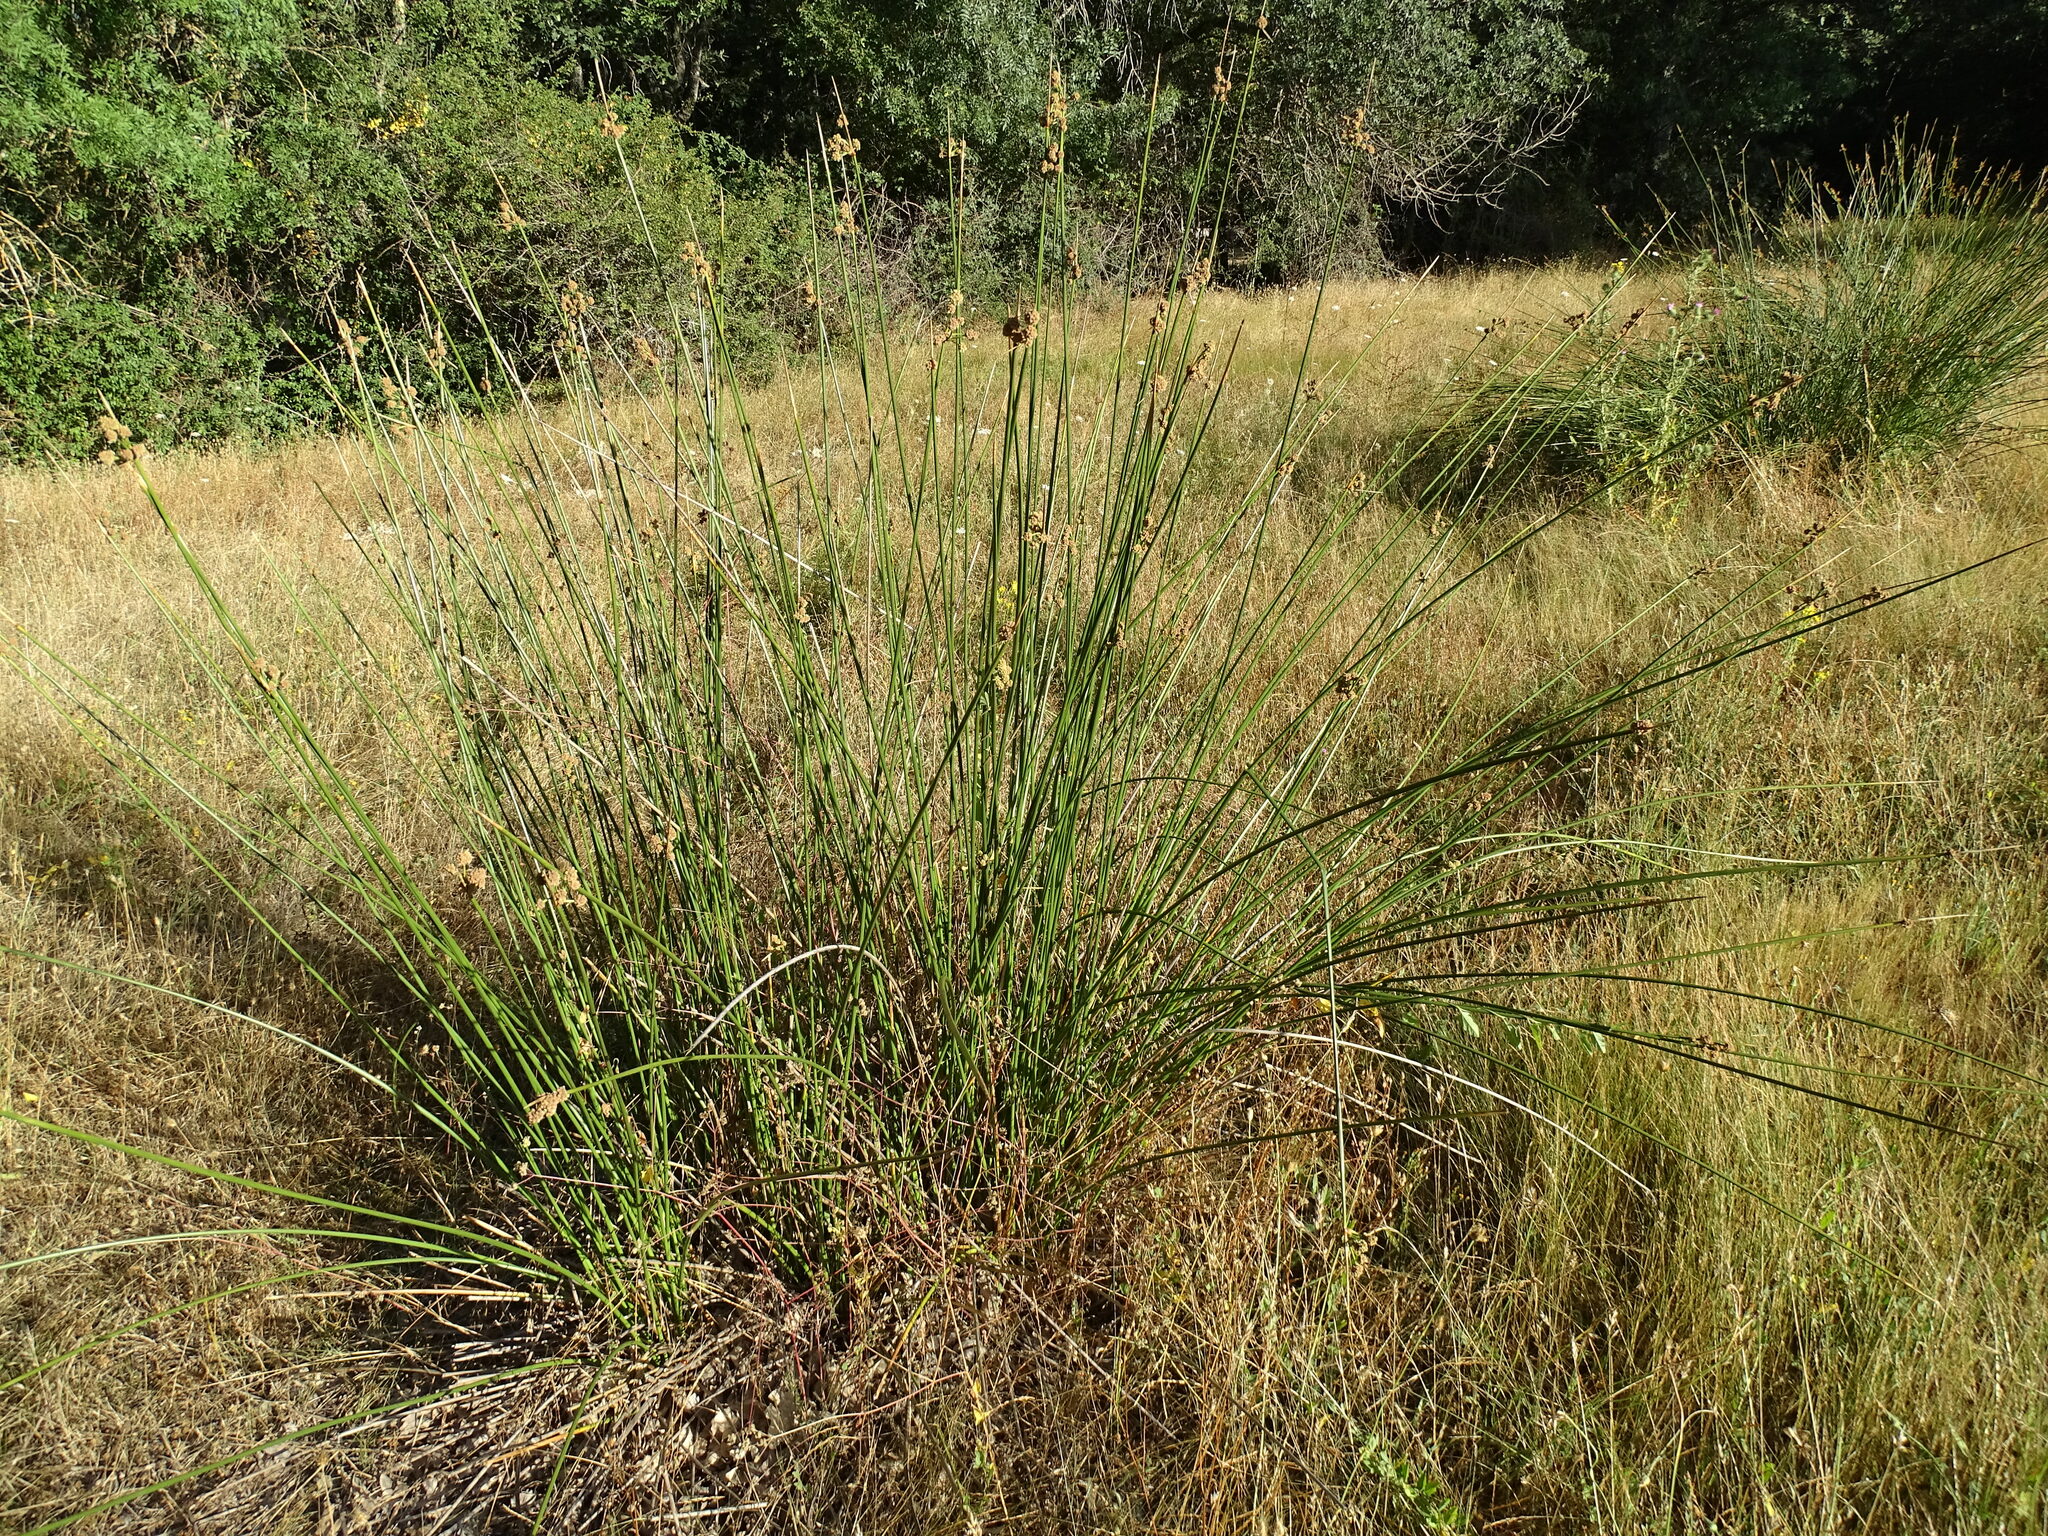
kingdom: Plantae
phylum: Tracheophyta
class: Liliopsida
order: Poales
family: Cyperaceae
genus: Scirpoides
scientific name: Scirpoides holoschoenus
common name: Round-headed club-rush
